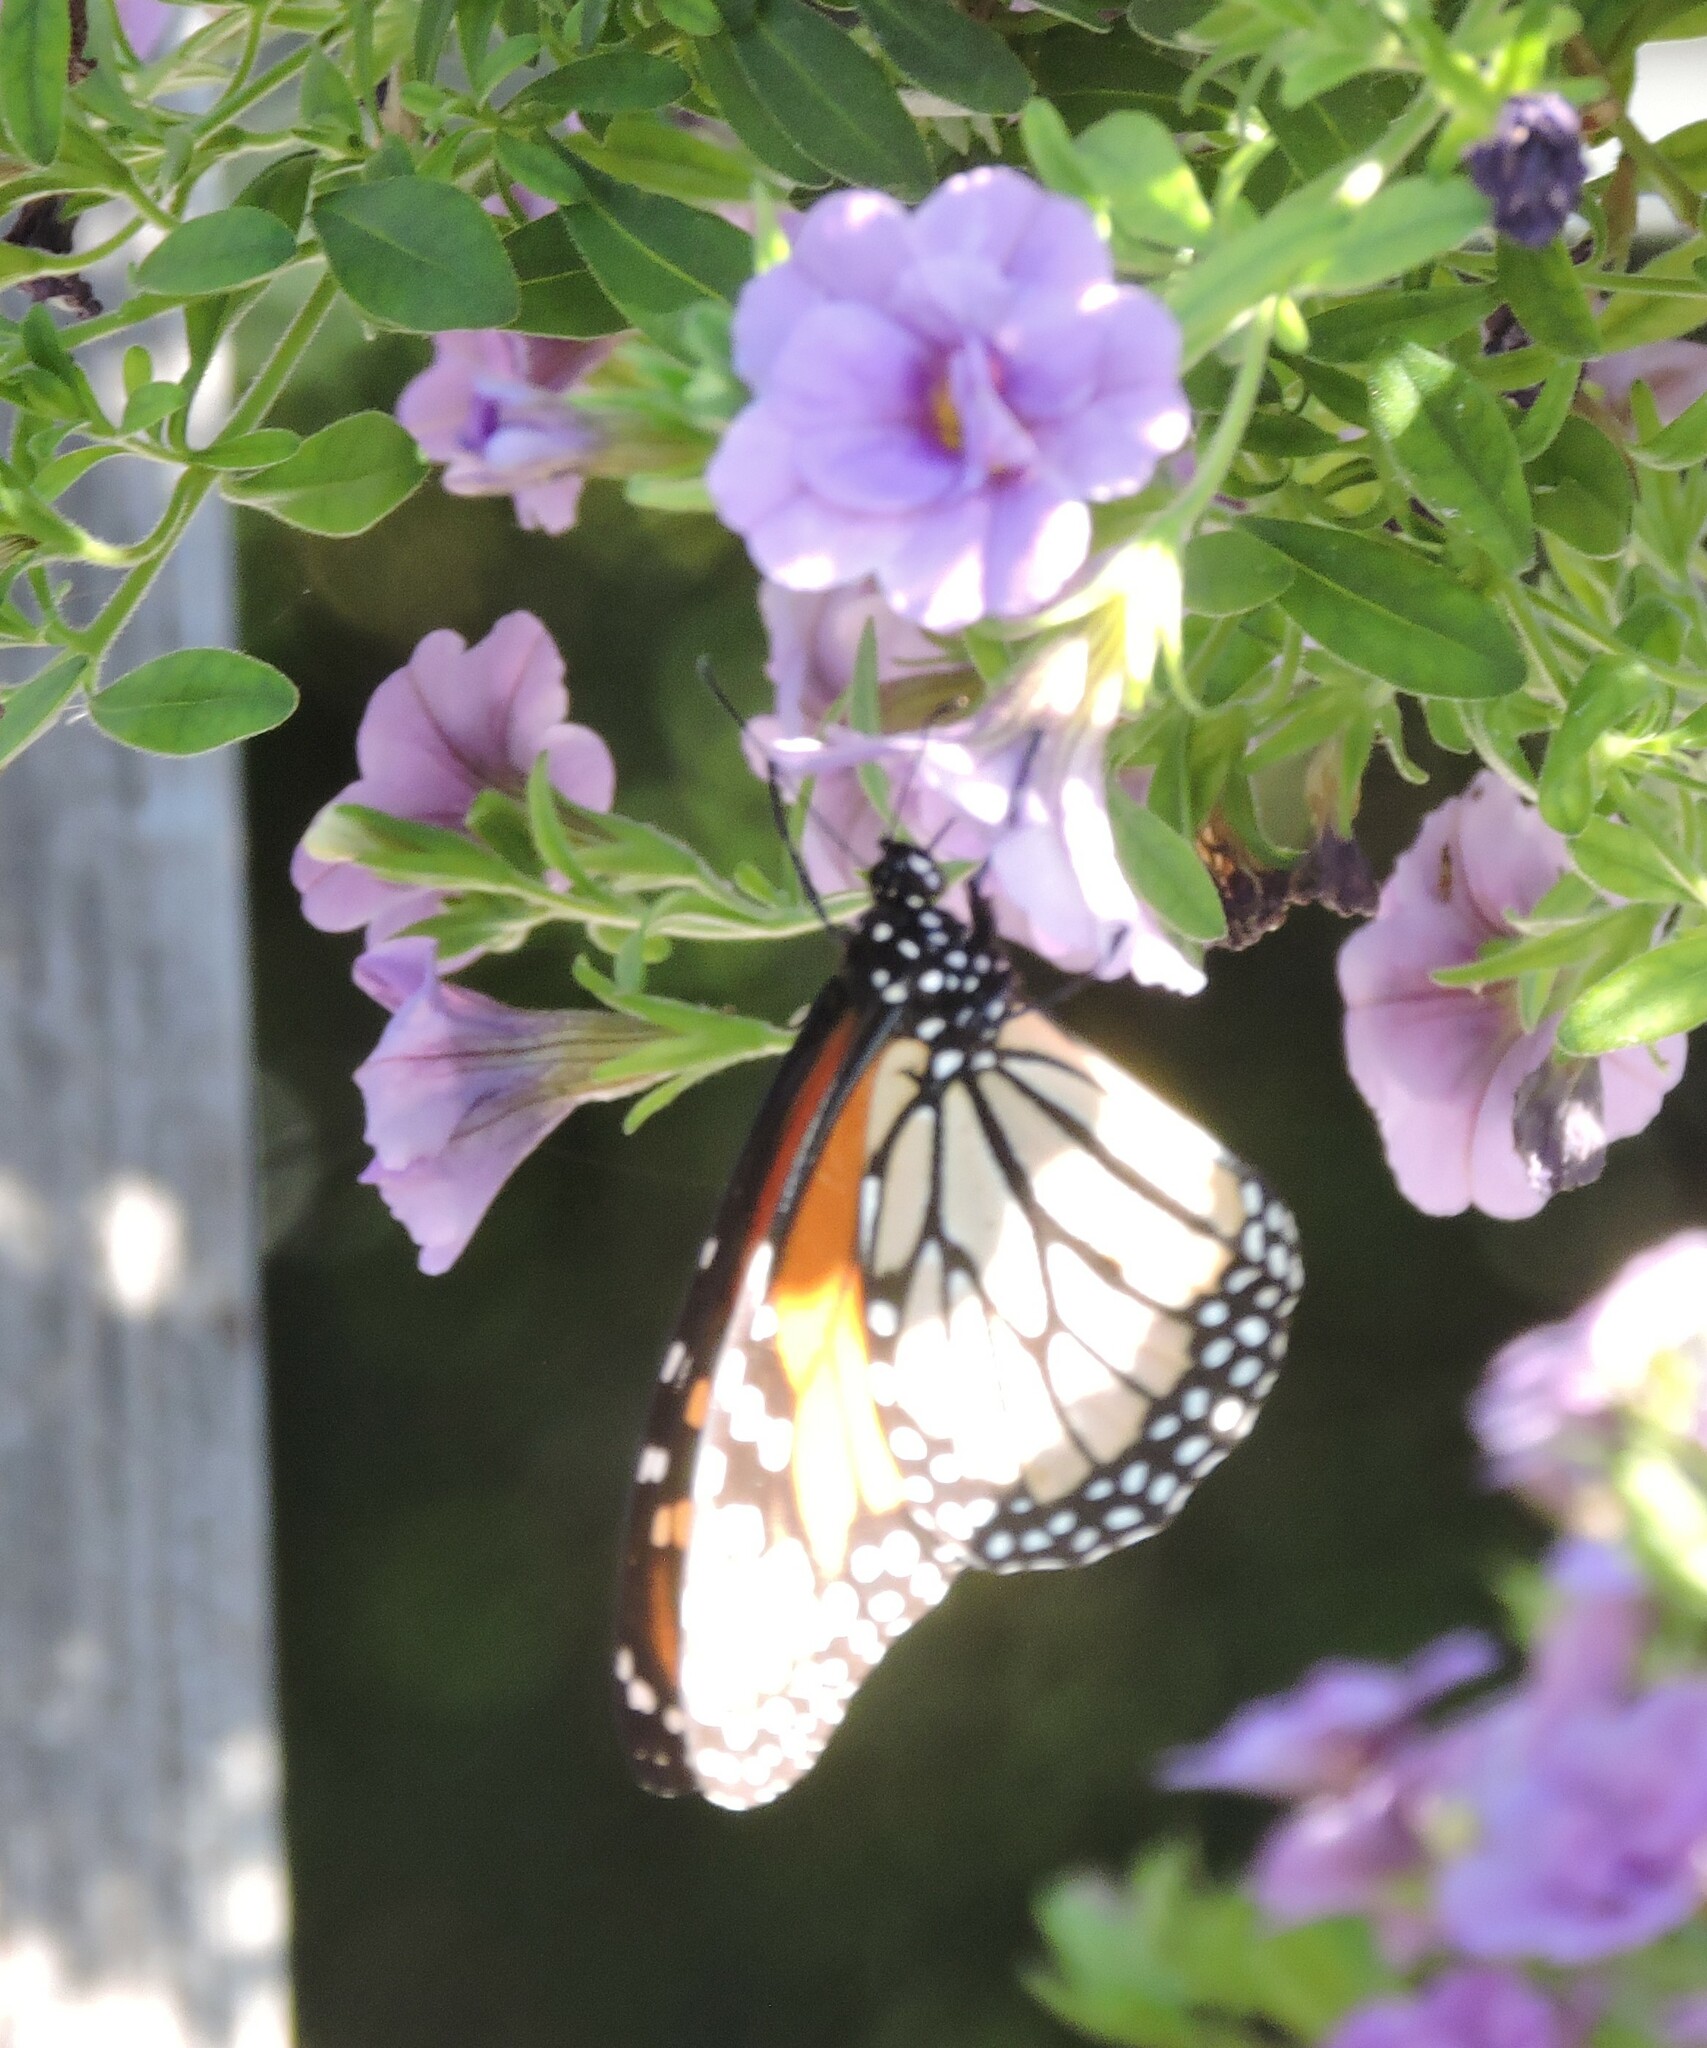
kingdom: Animalia
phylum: Arthropoda
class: Insecta
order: Lepidoptera
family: Nymphalidae
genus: Danaus
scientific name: Danaus plexippus
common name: Monarch
